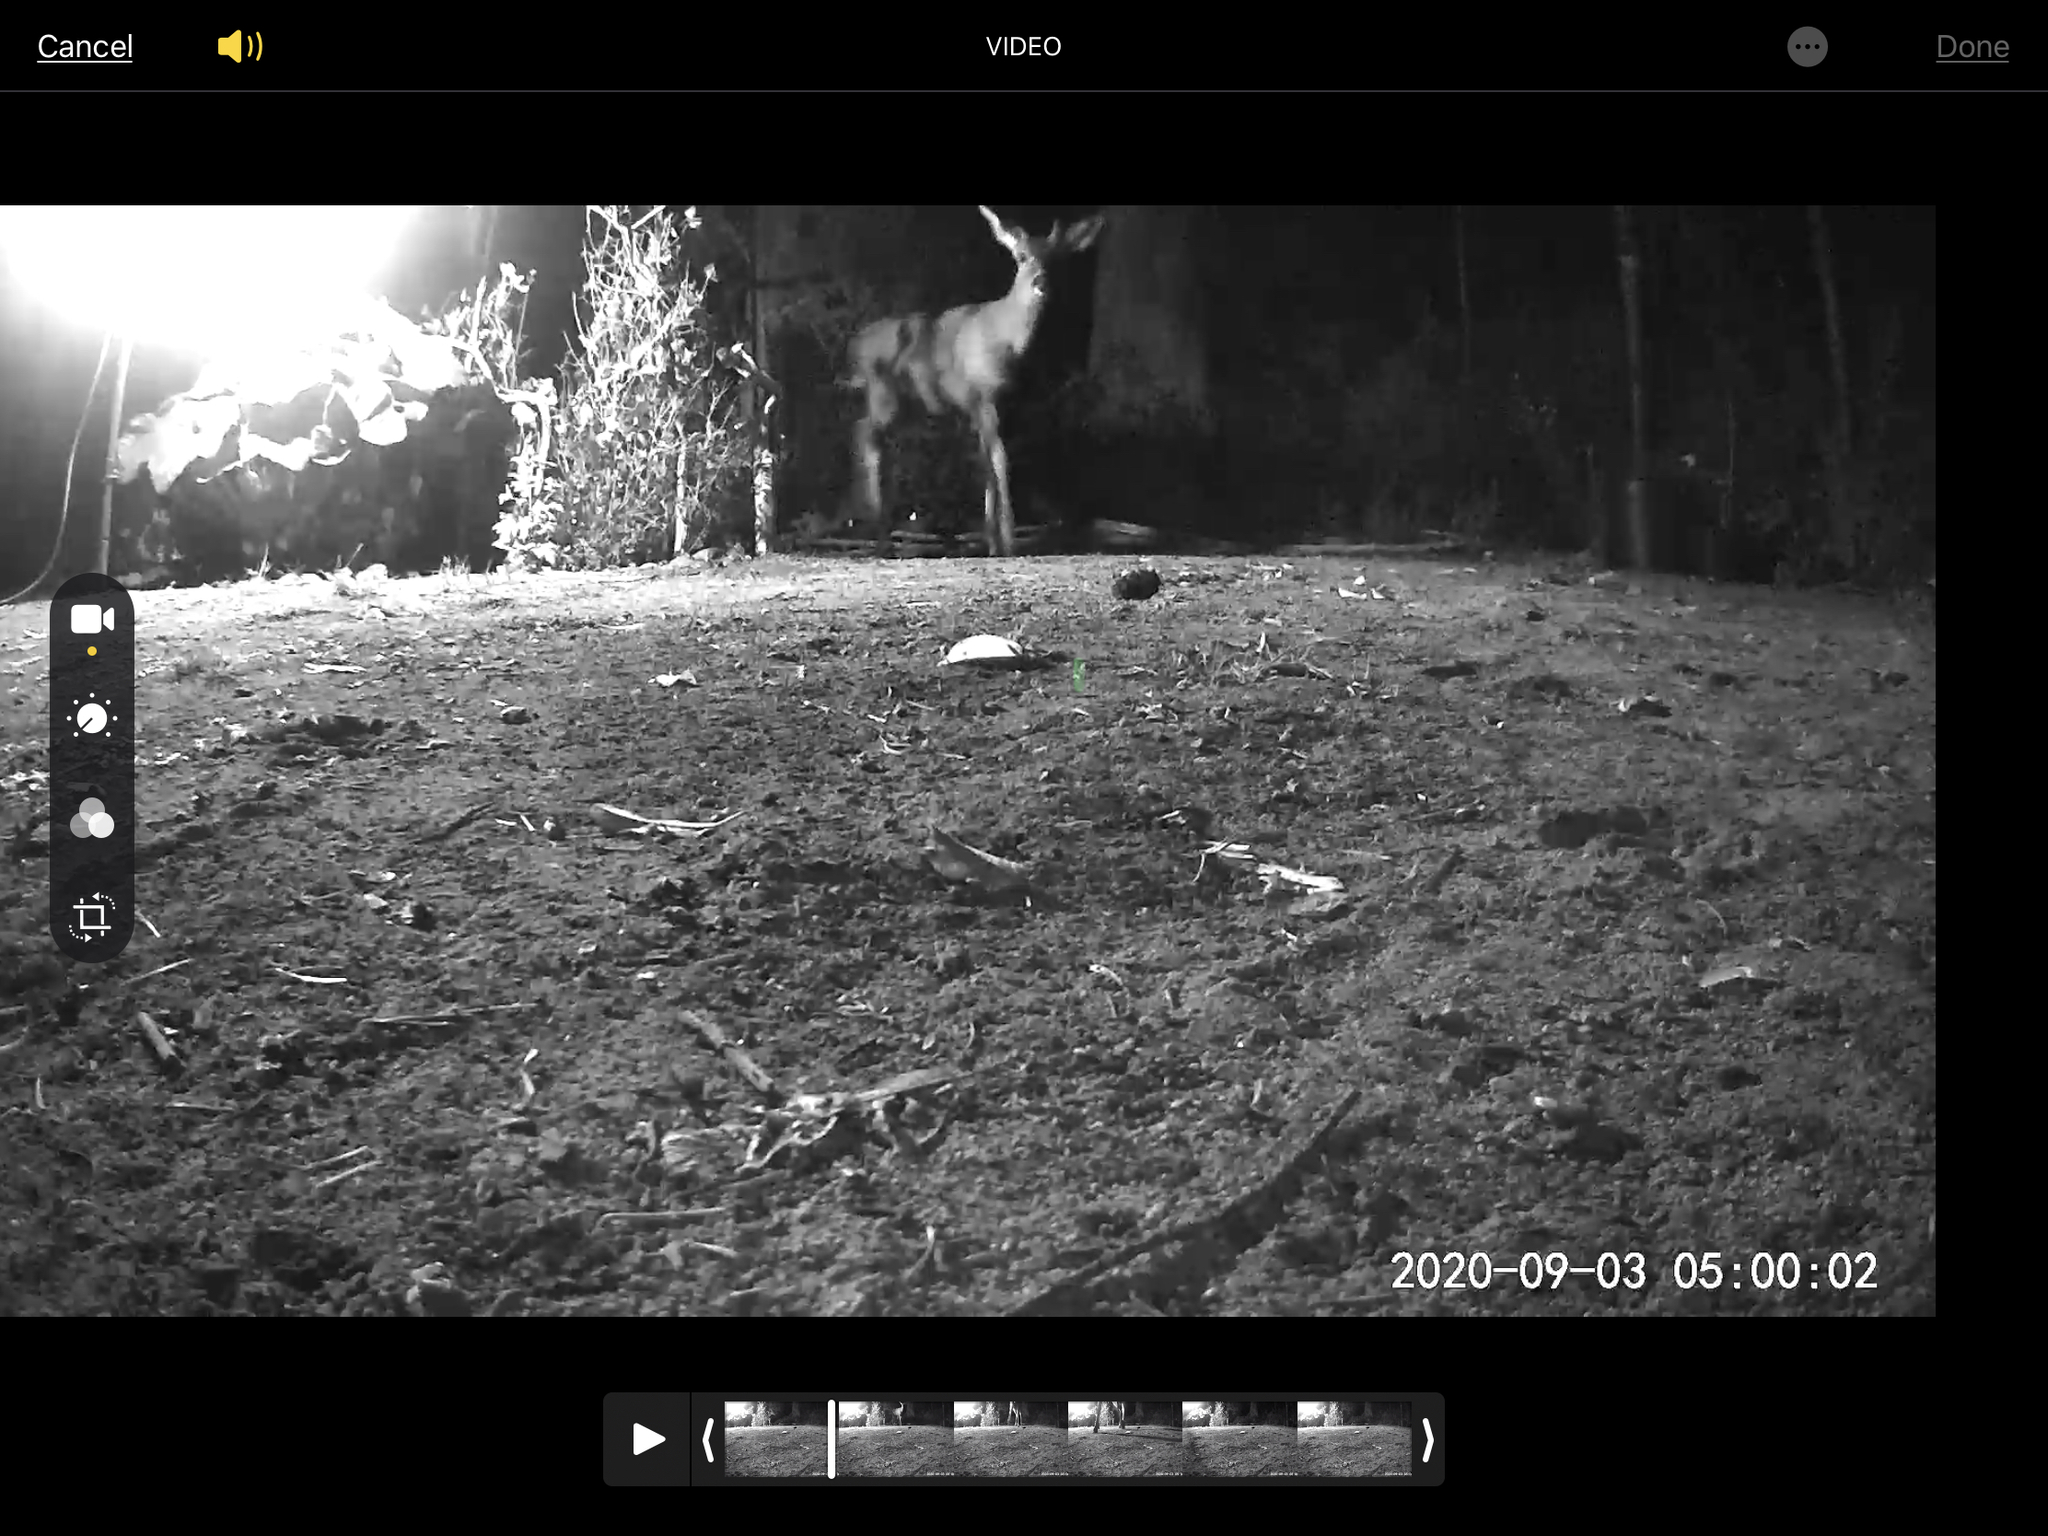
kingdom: Animalia
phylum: Chordata
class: Mammalia
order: Artiodactyla
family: Cervidae
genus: Odocoileus
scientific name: Odocoileus hemionus
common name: Mule deer
